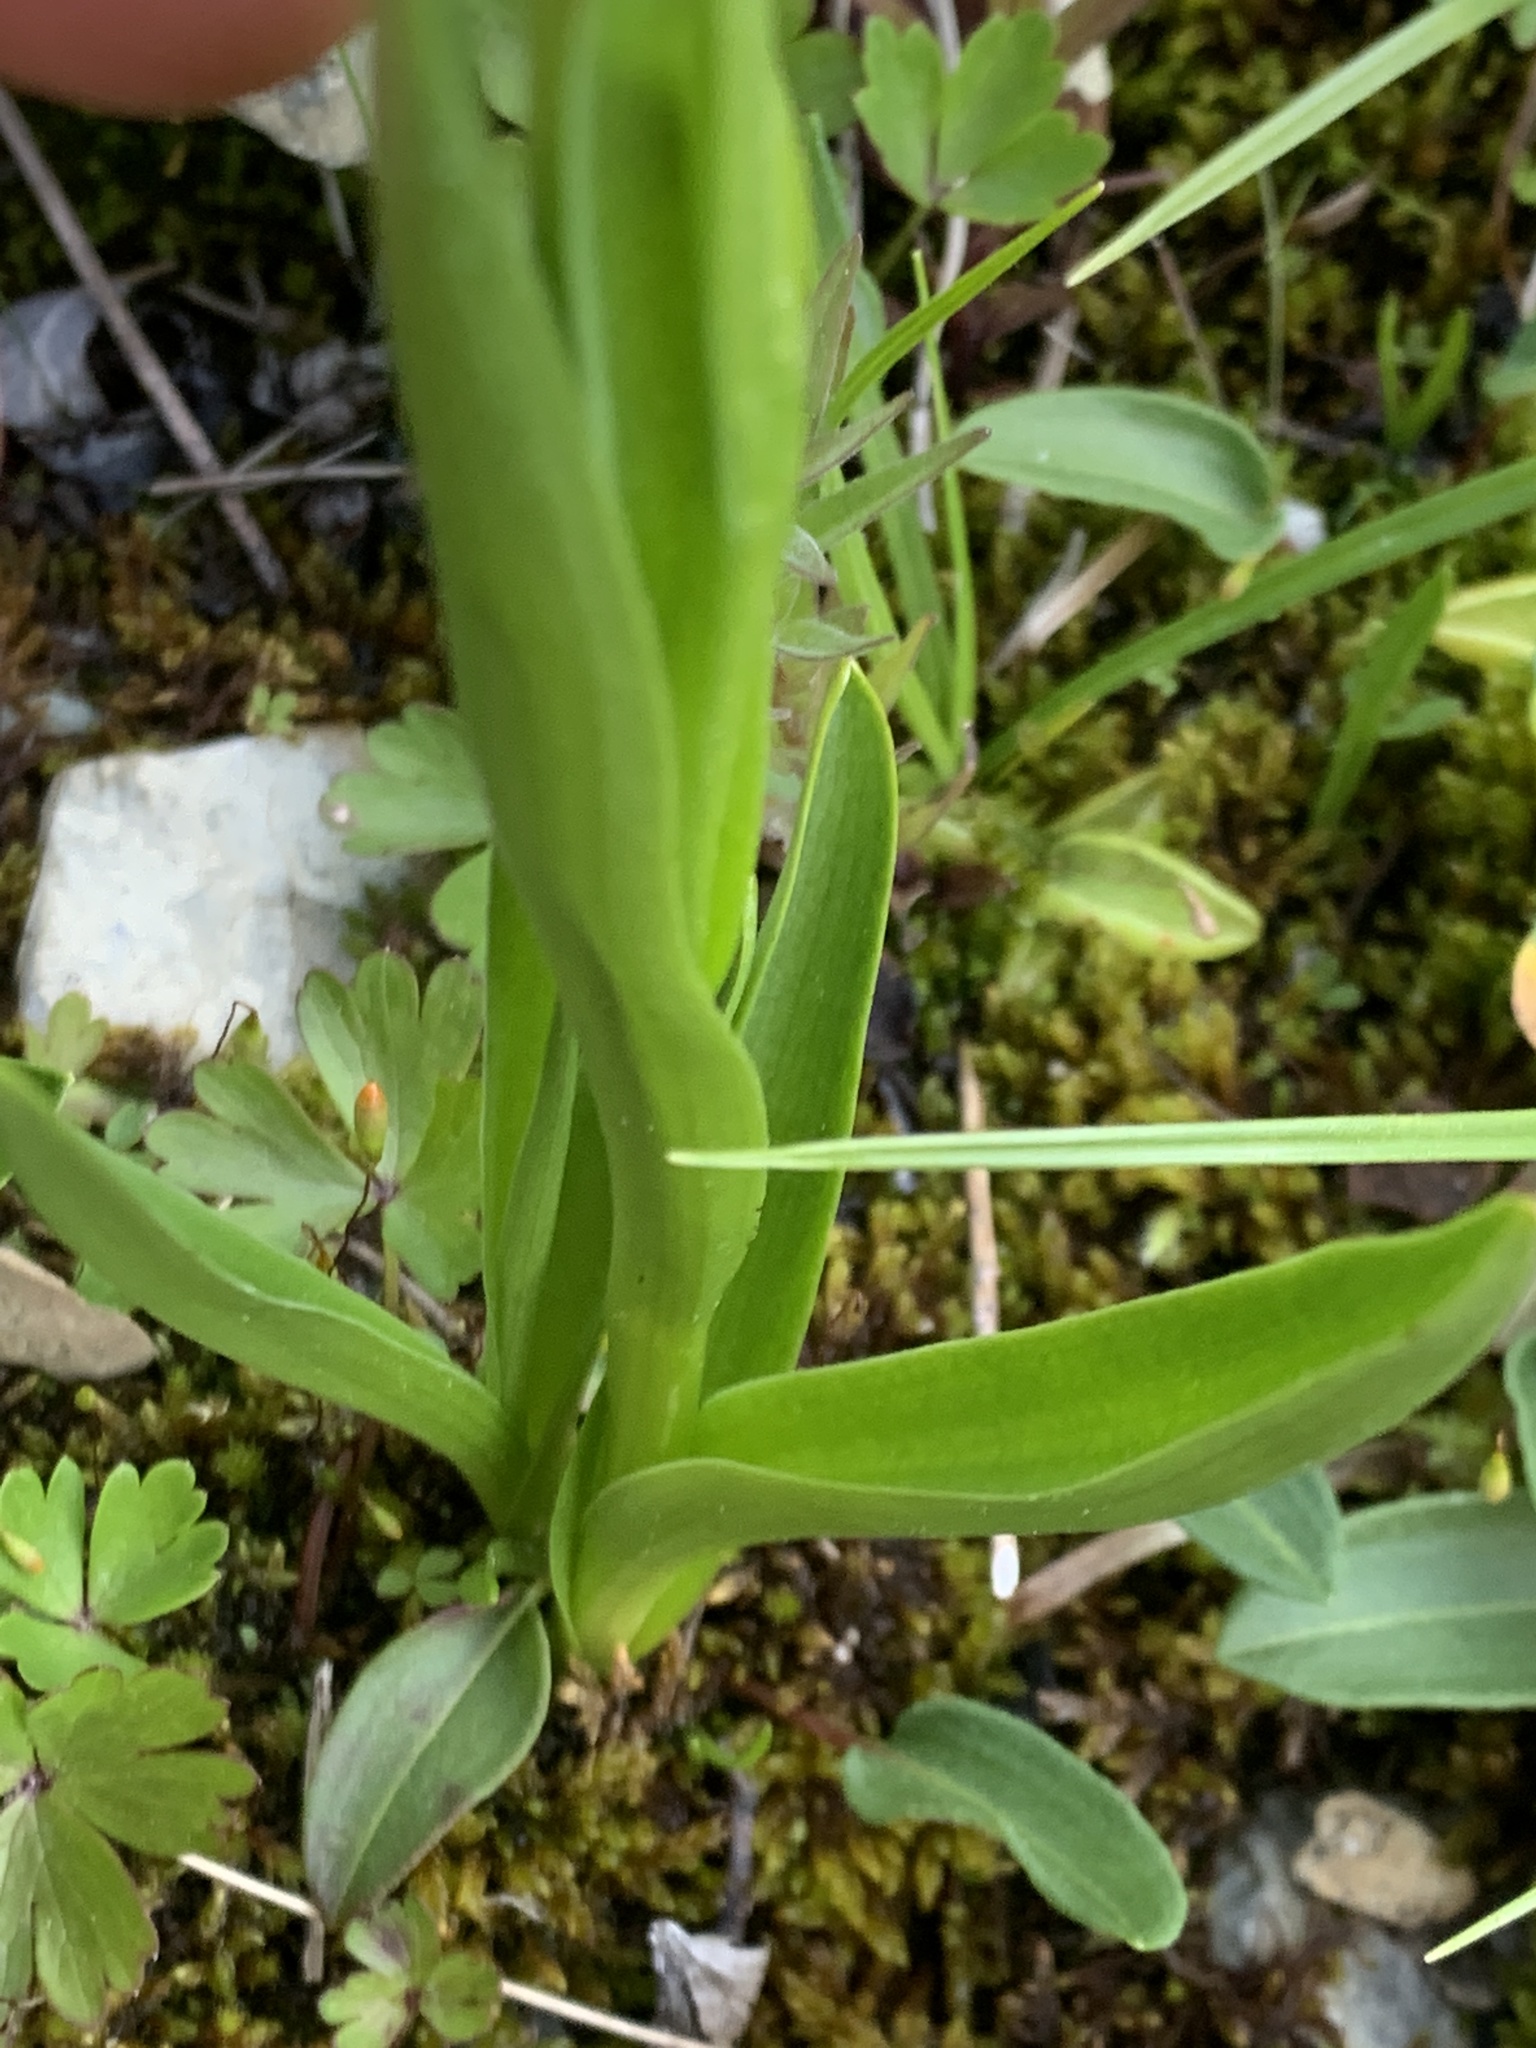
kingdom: Plantae
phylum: Tracheophyta
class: Liliopsida
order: Asparagales
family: Orchidaceae
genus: Platanthera
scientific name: Platanthera huronensis
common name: Fragrant green orchid
